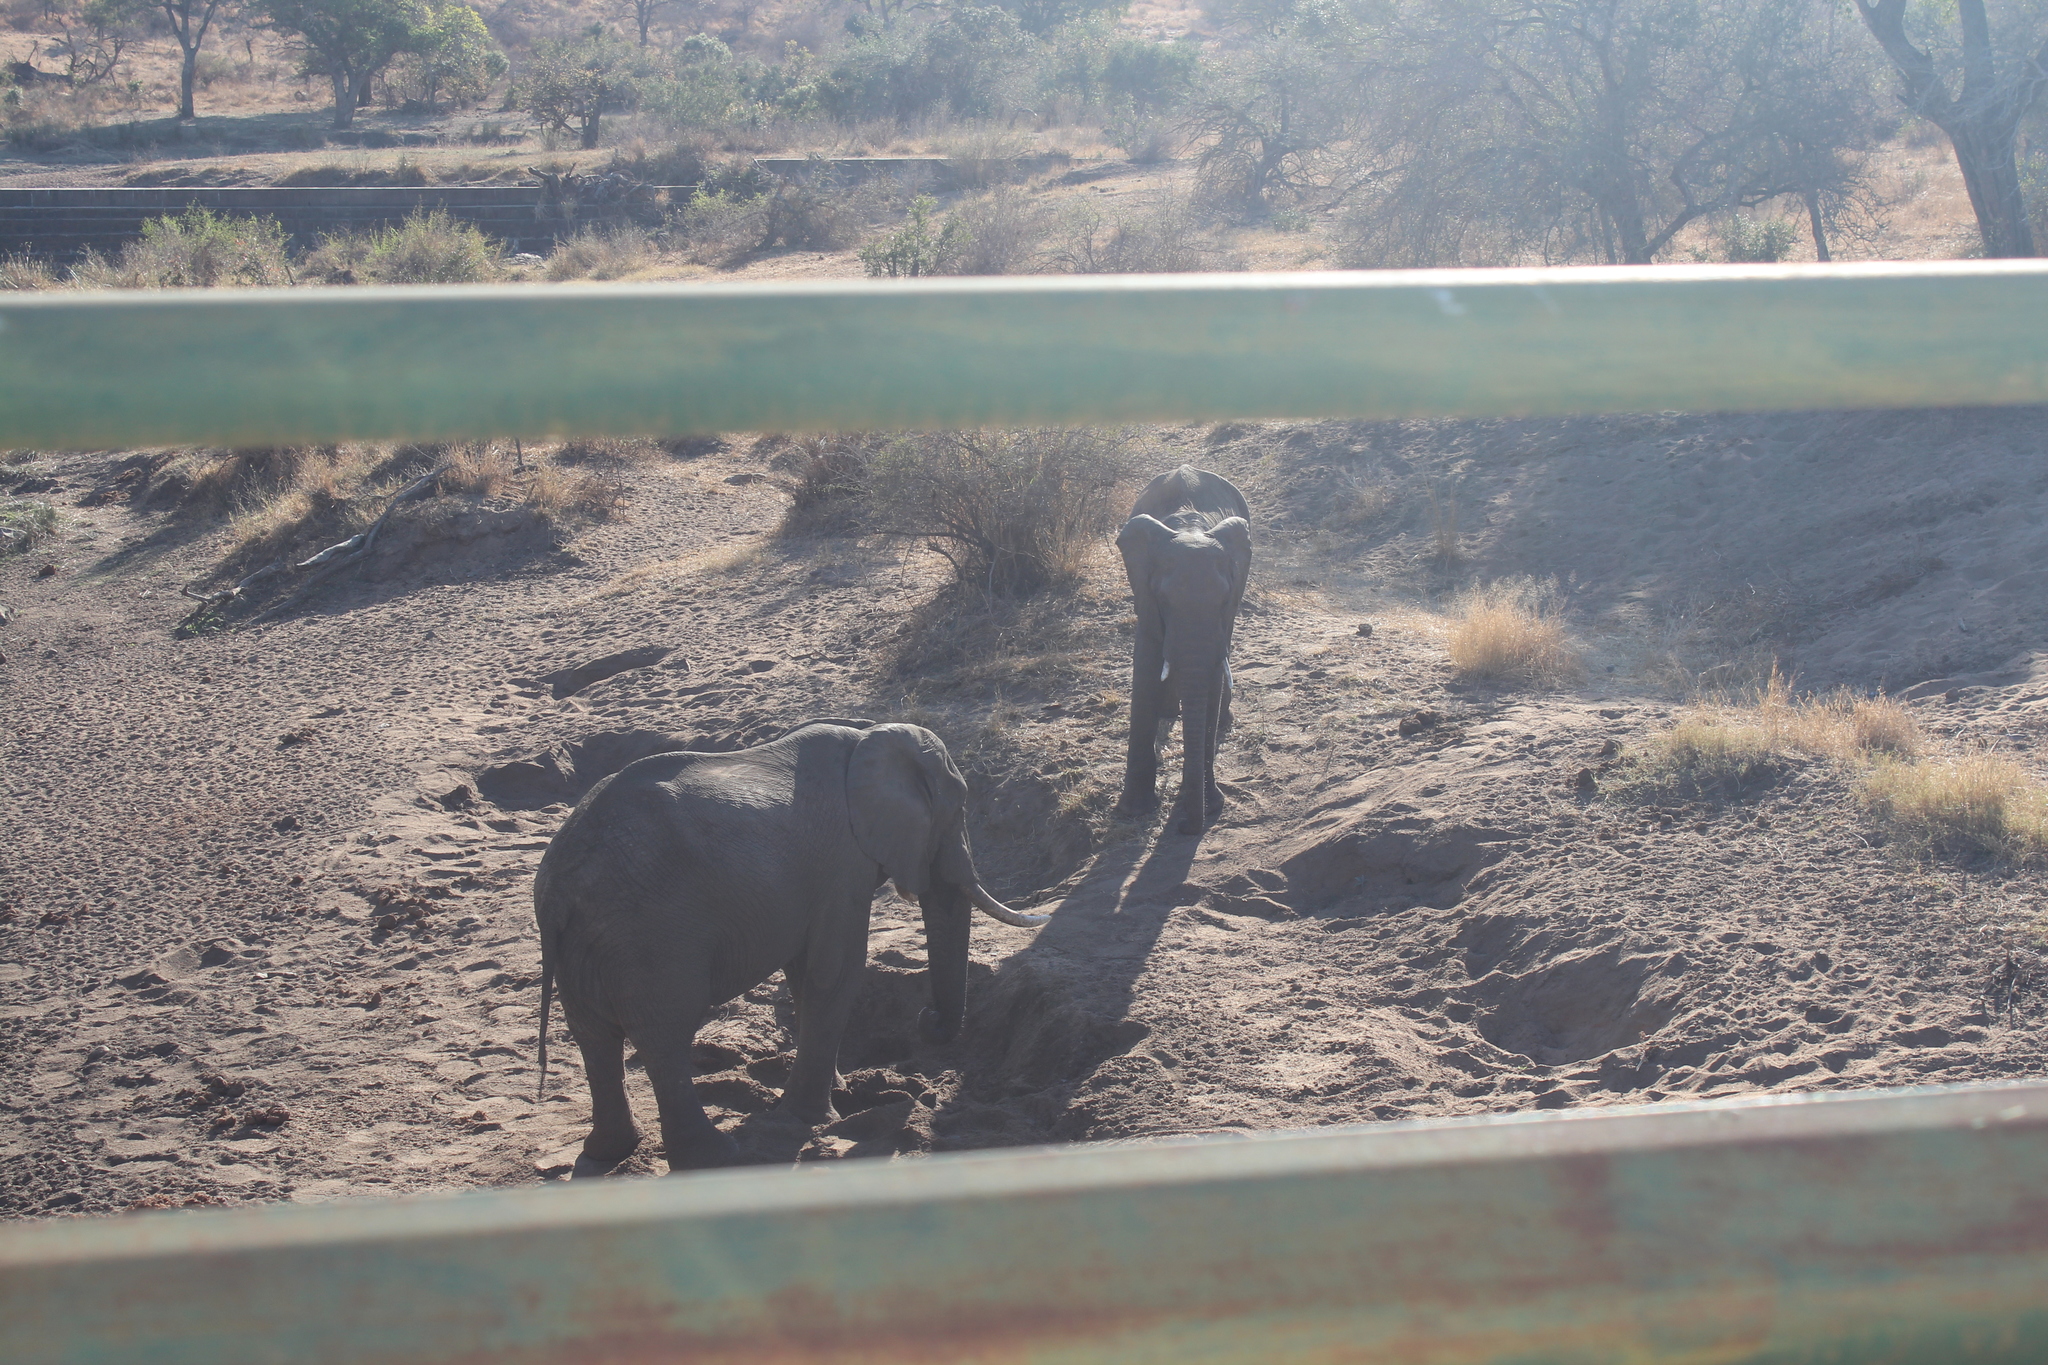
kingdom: Animalia
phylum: Chordata
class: Mammalia
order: Proboscidea
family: Elephantidae
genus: Loxodonta
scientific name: Loxodonta africana
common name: African elephant
